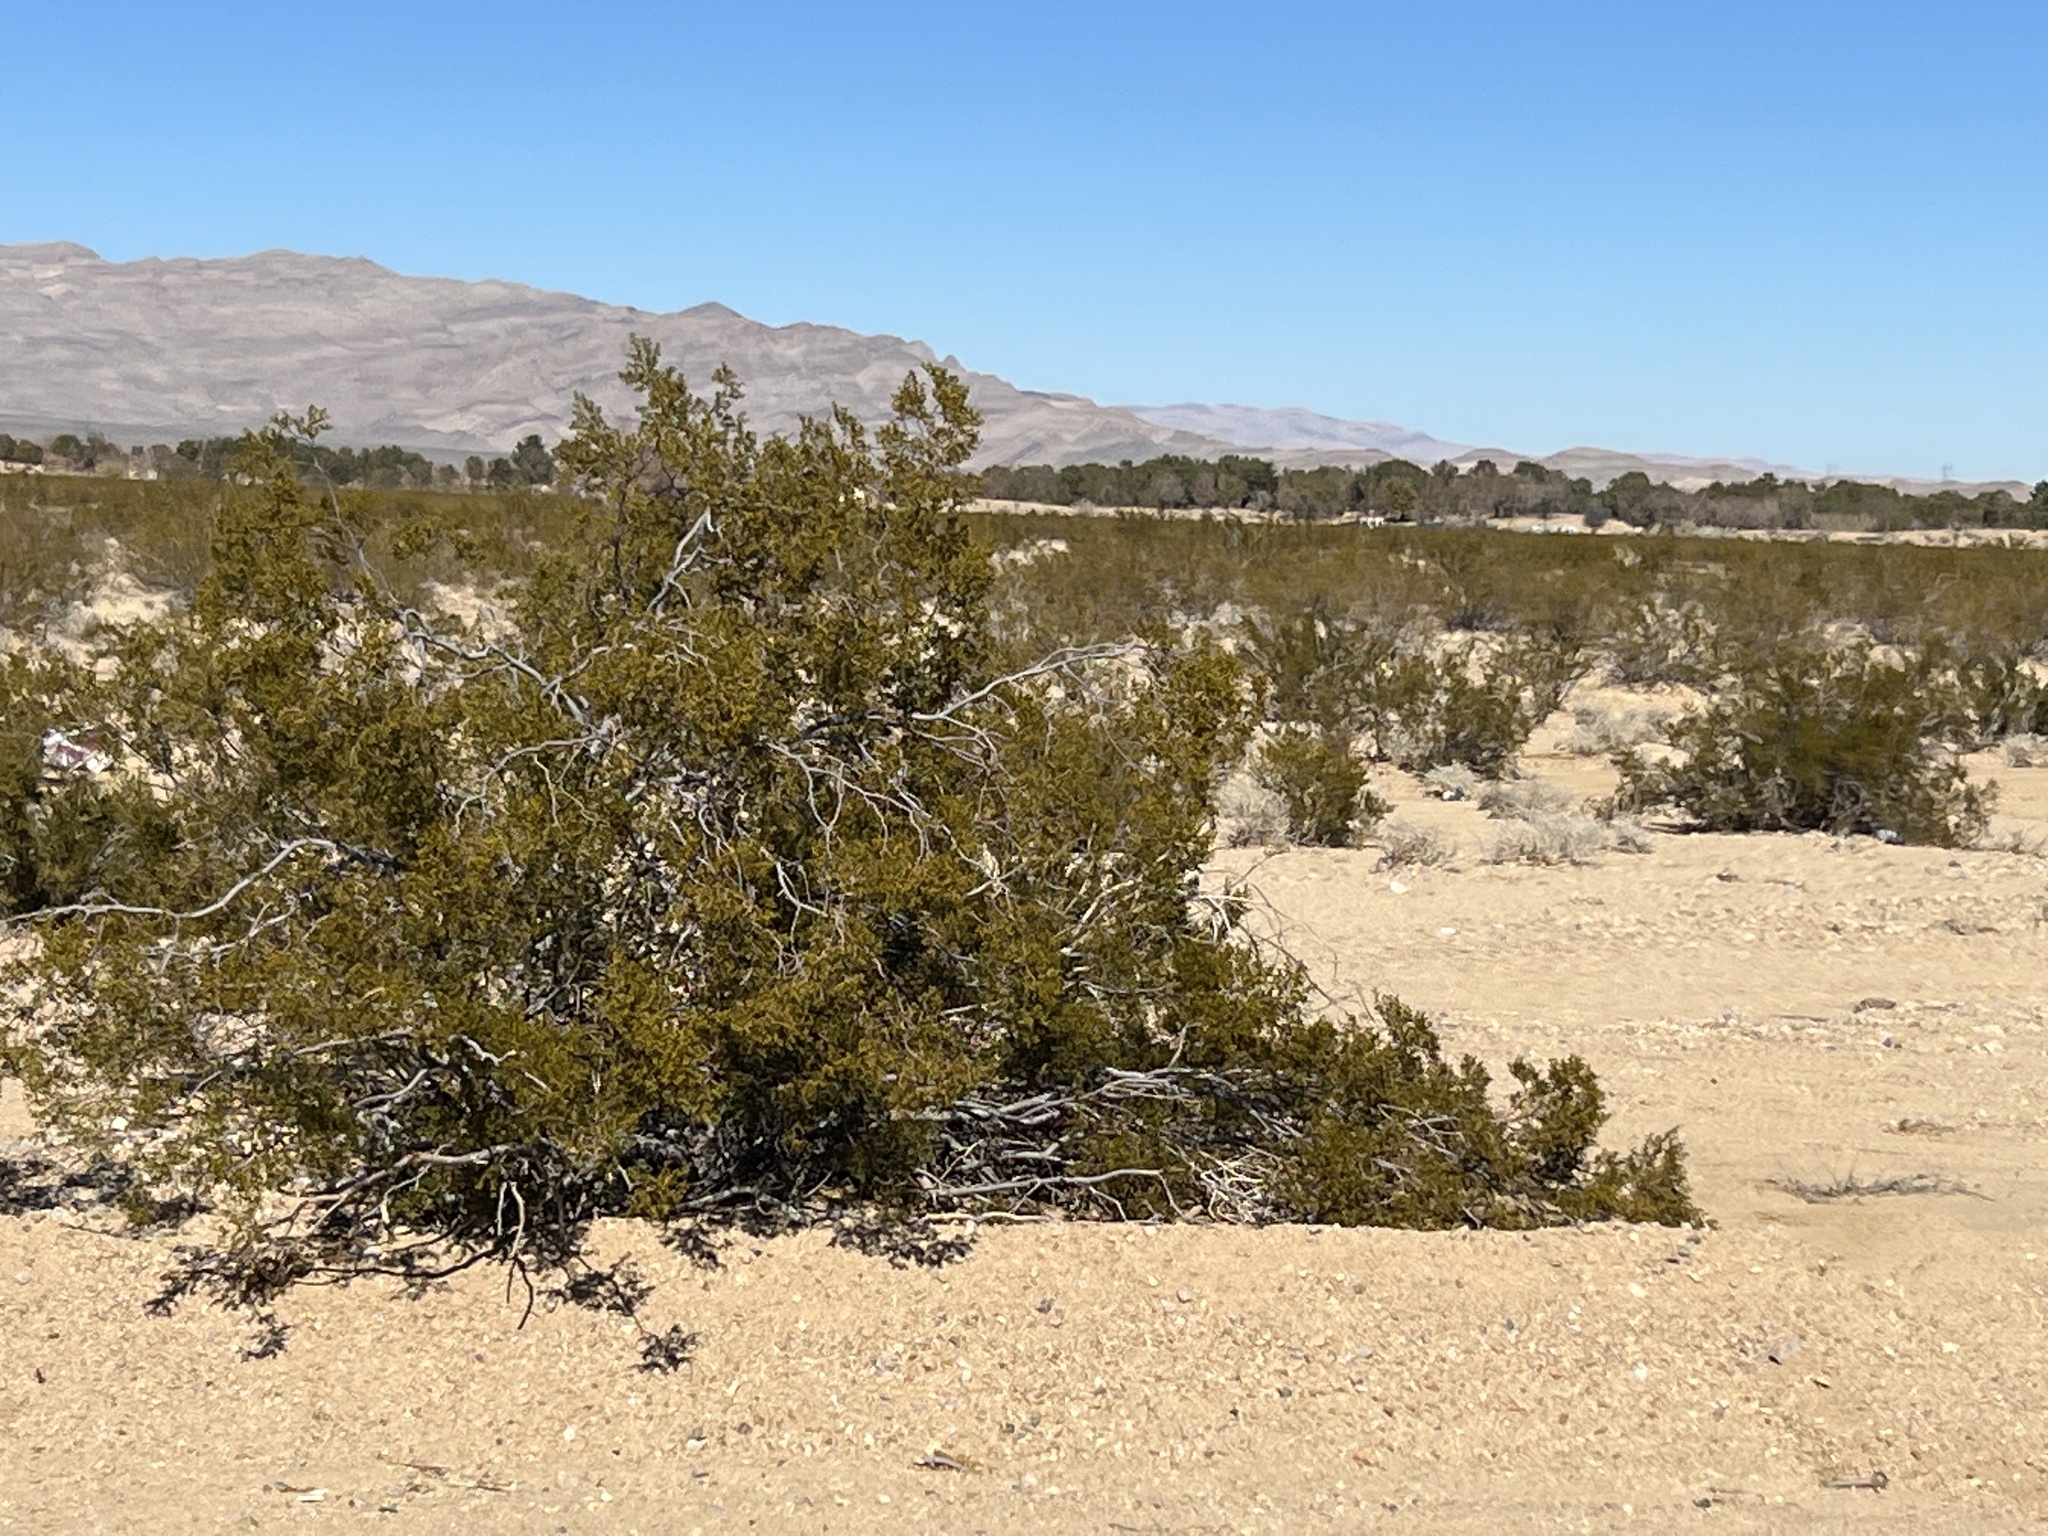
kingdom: Plantae
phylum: Tracheophyta
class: Magnoliopsida
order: Zygophyllales
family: Zygophyllaceae
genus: Larrea
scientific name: Larrea tridentata
